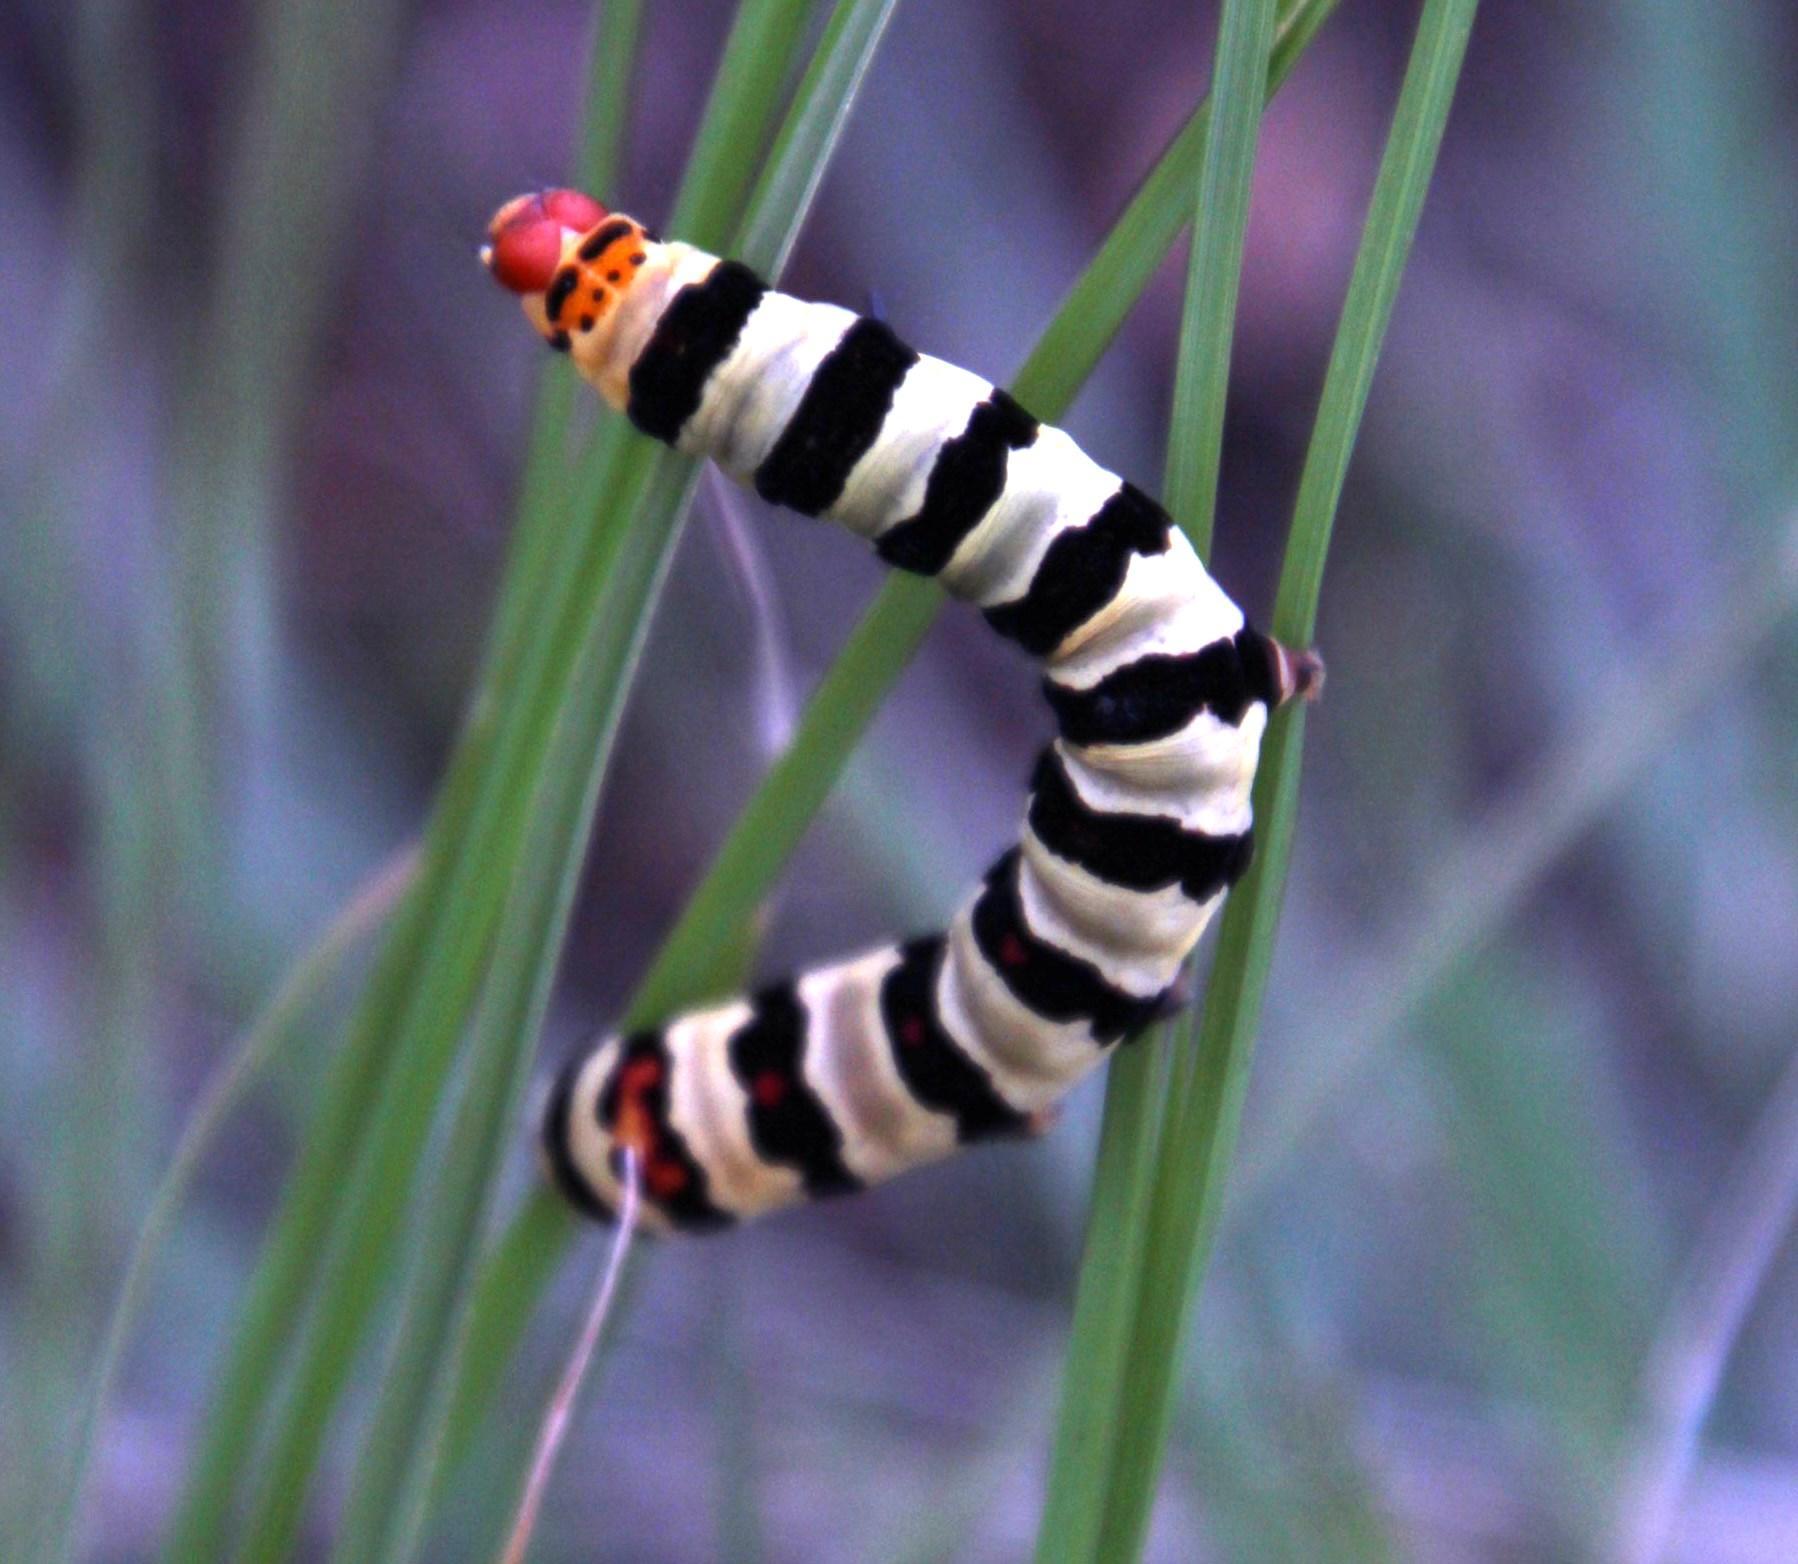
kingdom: Animalia
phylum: Arthropoda
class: Insecta
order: Lepidoptera
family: Noctuidae
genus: Diaphone
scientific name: Diaphone eumela
